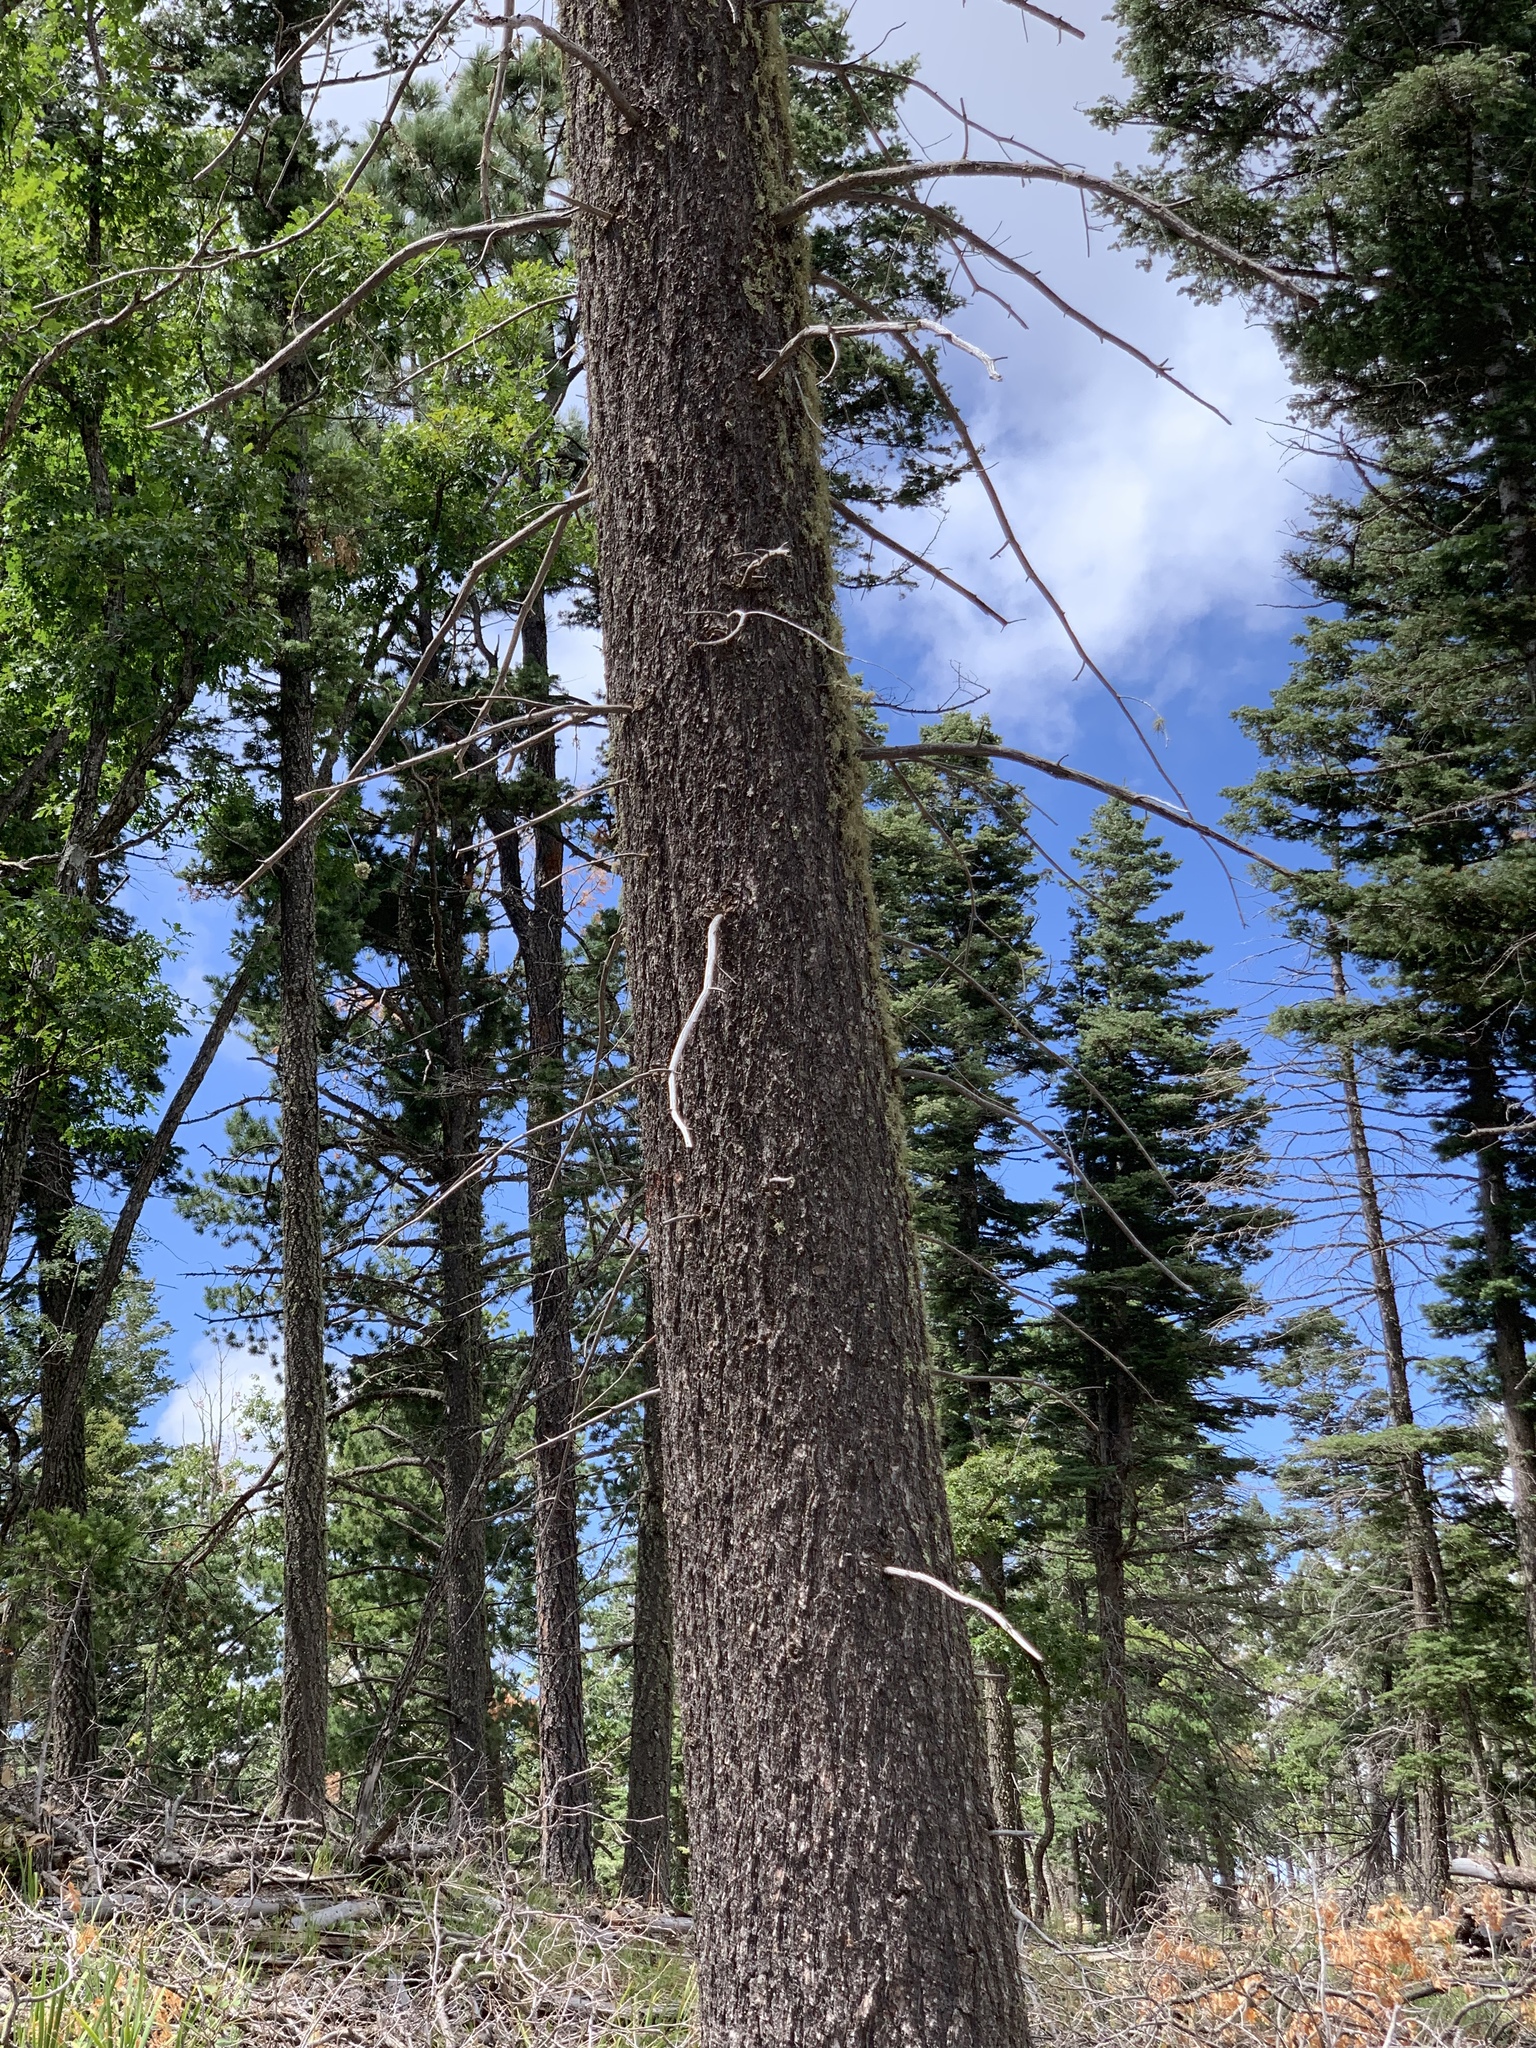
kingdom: Plantae
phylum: Tracheophyta
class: Pinopsida
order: Pinales
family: Pinaceae
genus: Pseudotsuga
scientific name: Pseudotsuga menziesii
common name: Douglas fir
